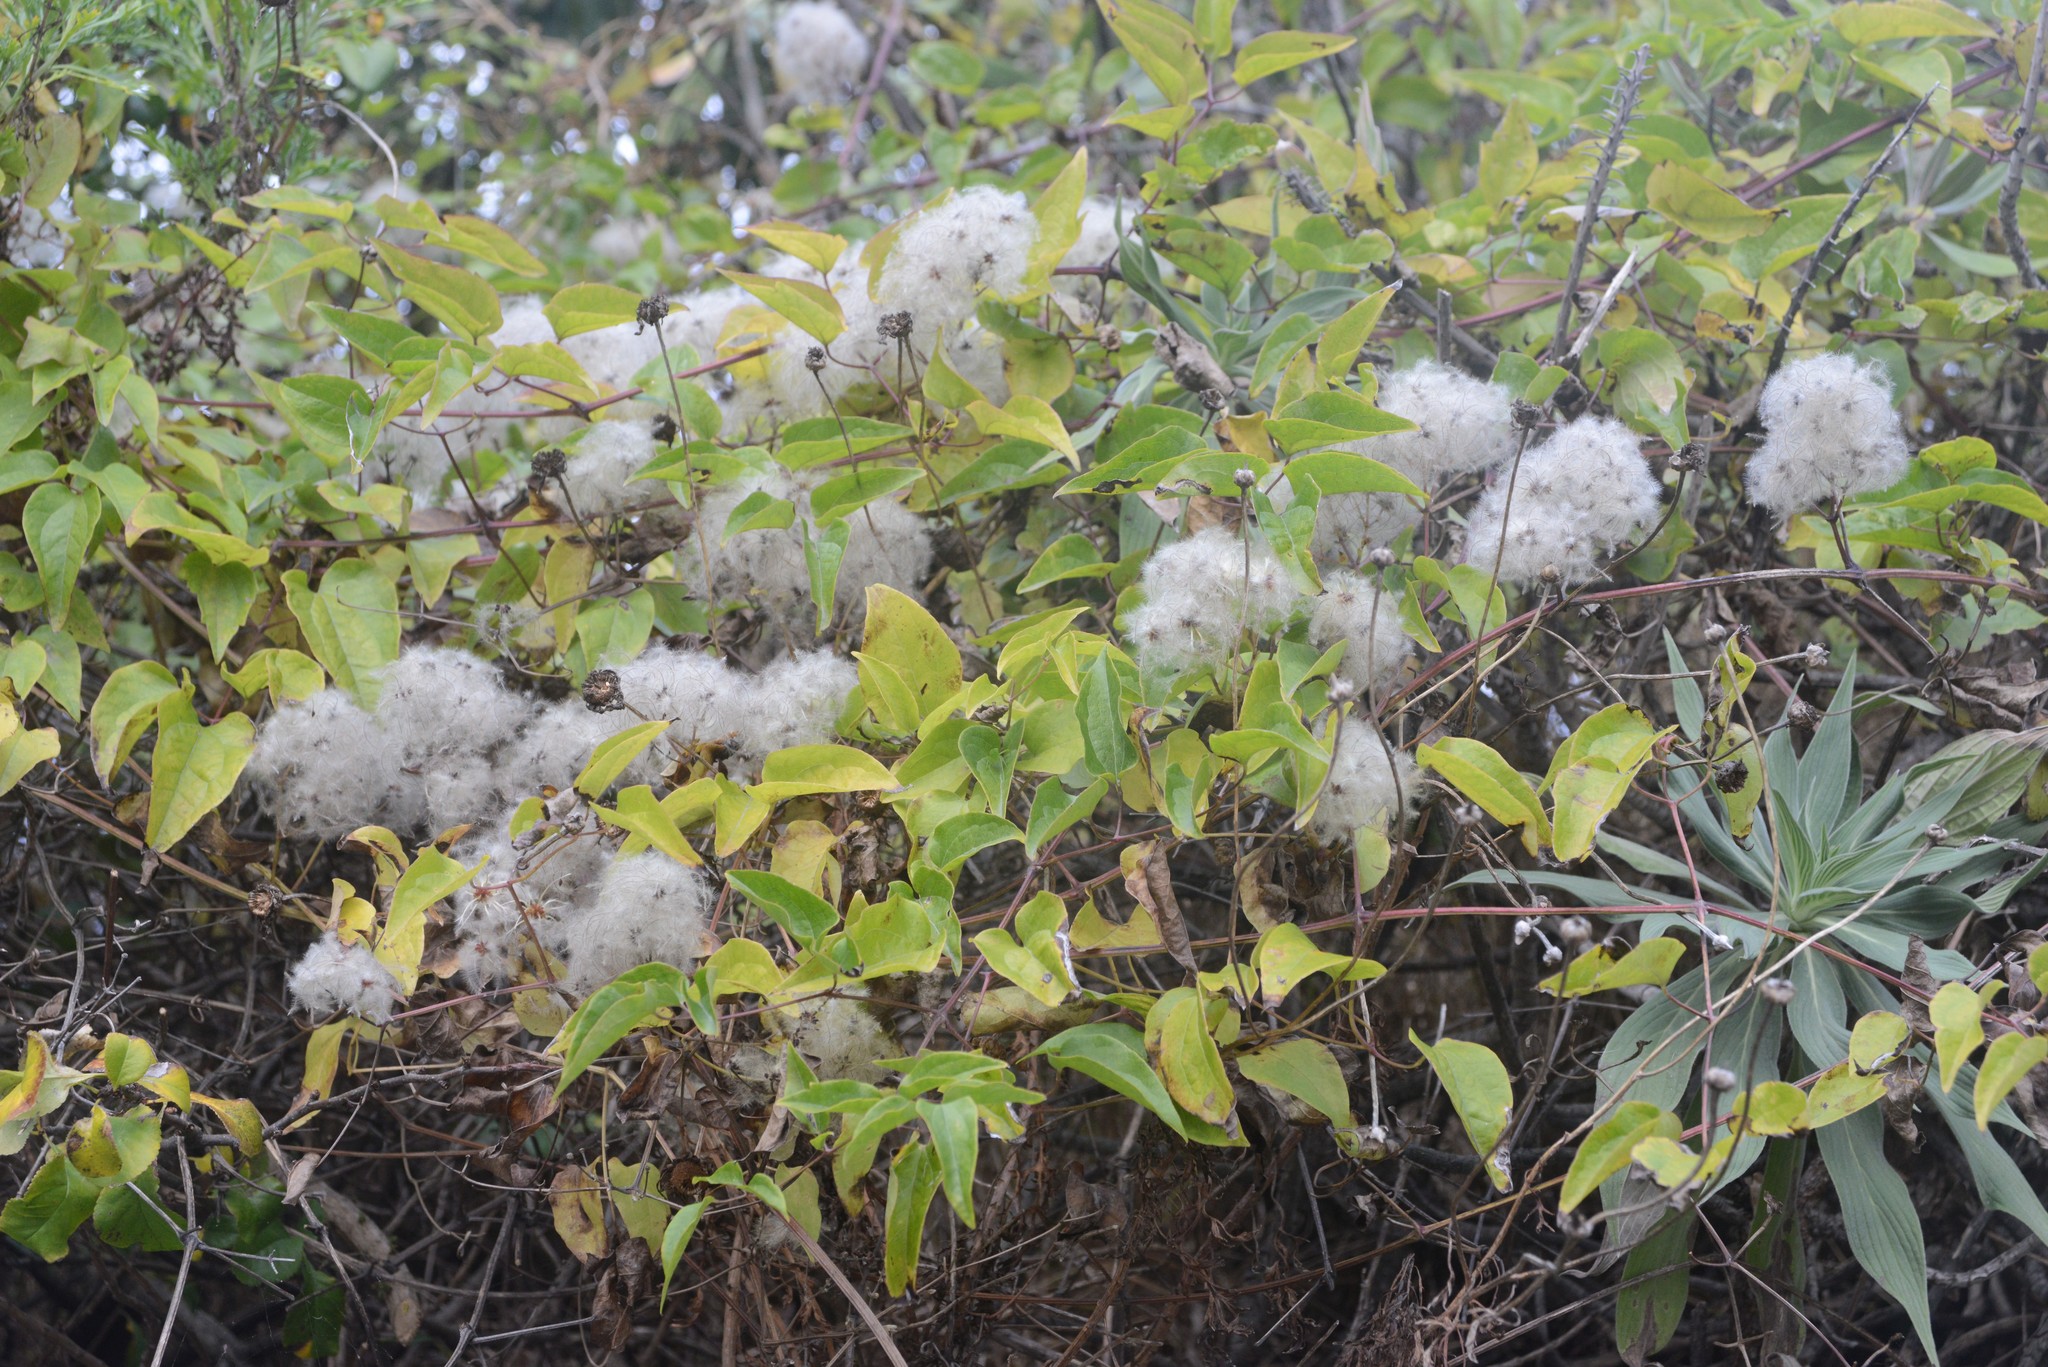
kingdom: Plantae
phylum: Tracheophyta
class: Magnoliopsida
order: Ranunculales
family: Ranunculaceae
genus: Clematis
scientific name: Clematis vitalba
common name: Evergreen clematis
